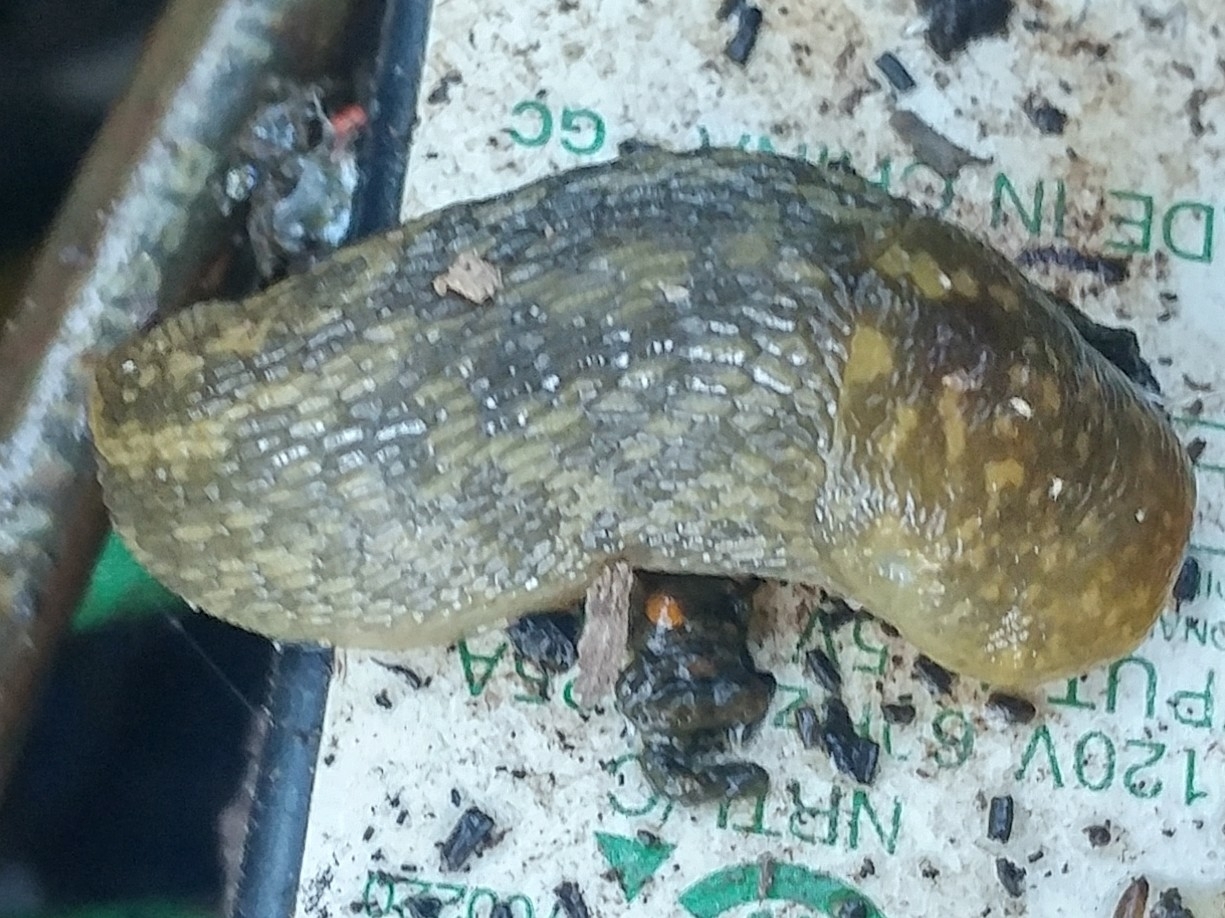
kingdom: Animalia
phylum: Mollusca
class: Gastropoda
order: Stylommatophora
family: Limacidae
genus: Limacus
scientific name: Limacus flavus
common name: Yellow gardenslug
